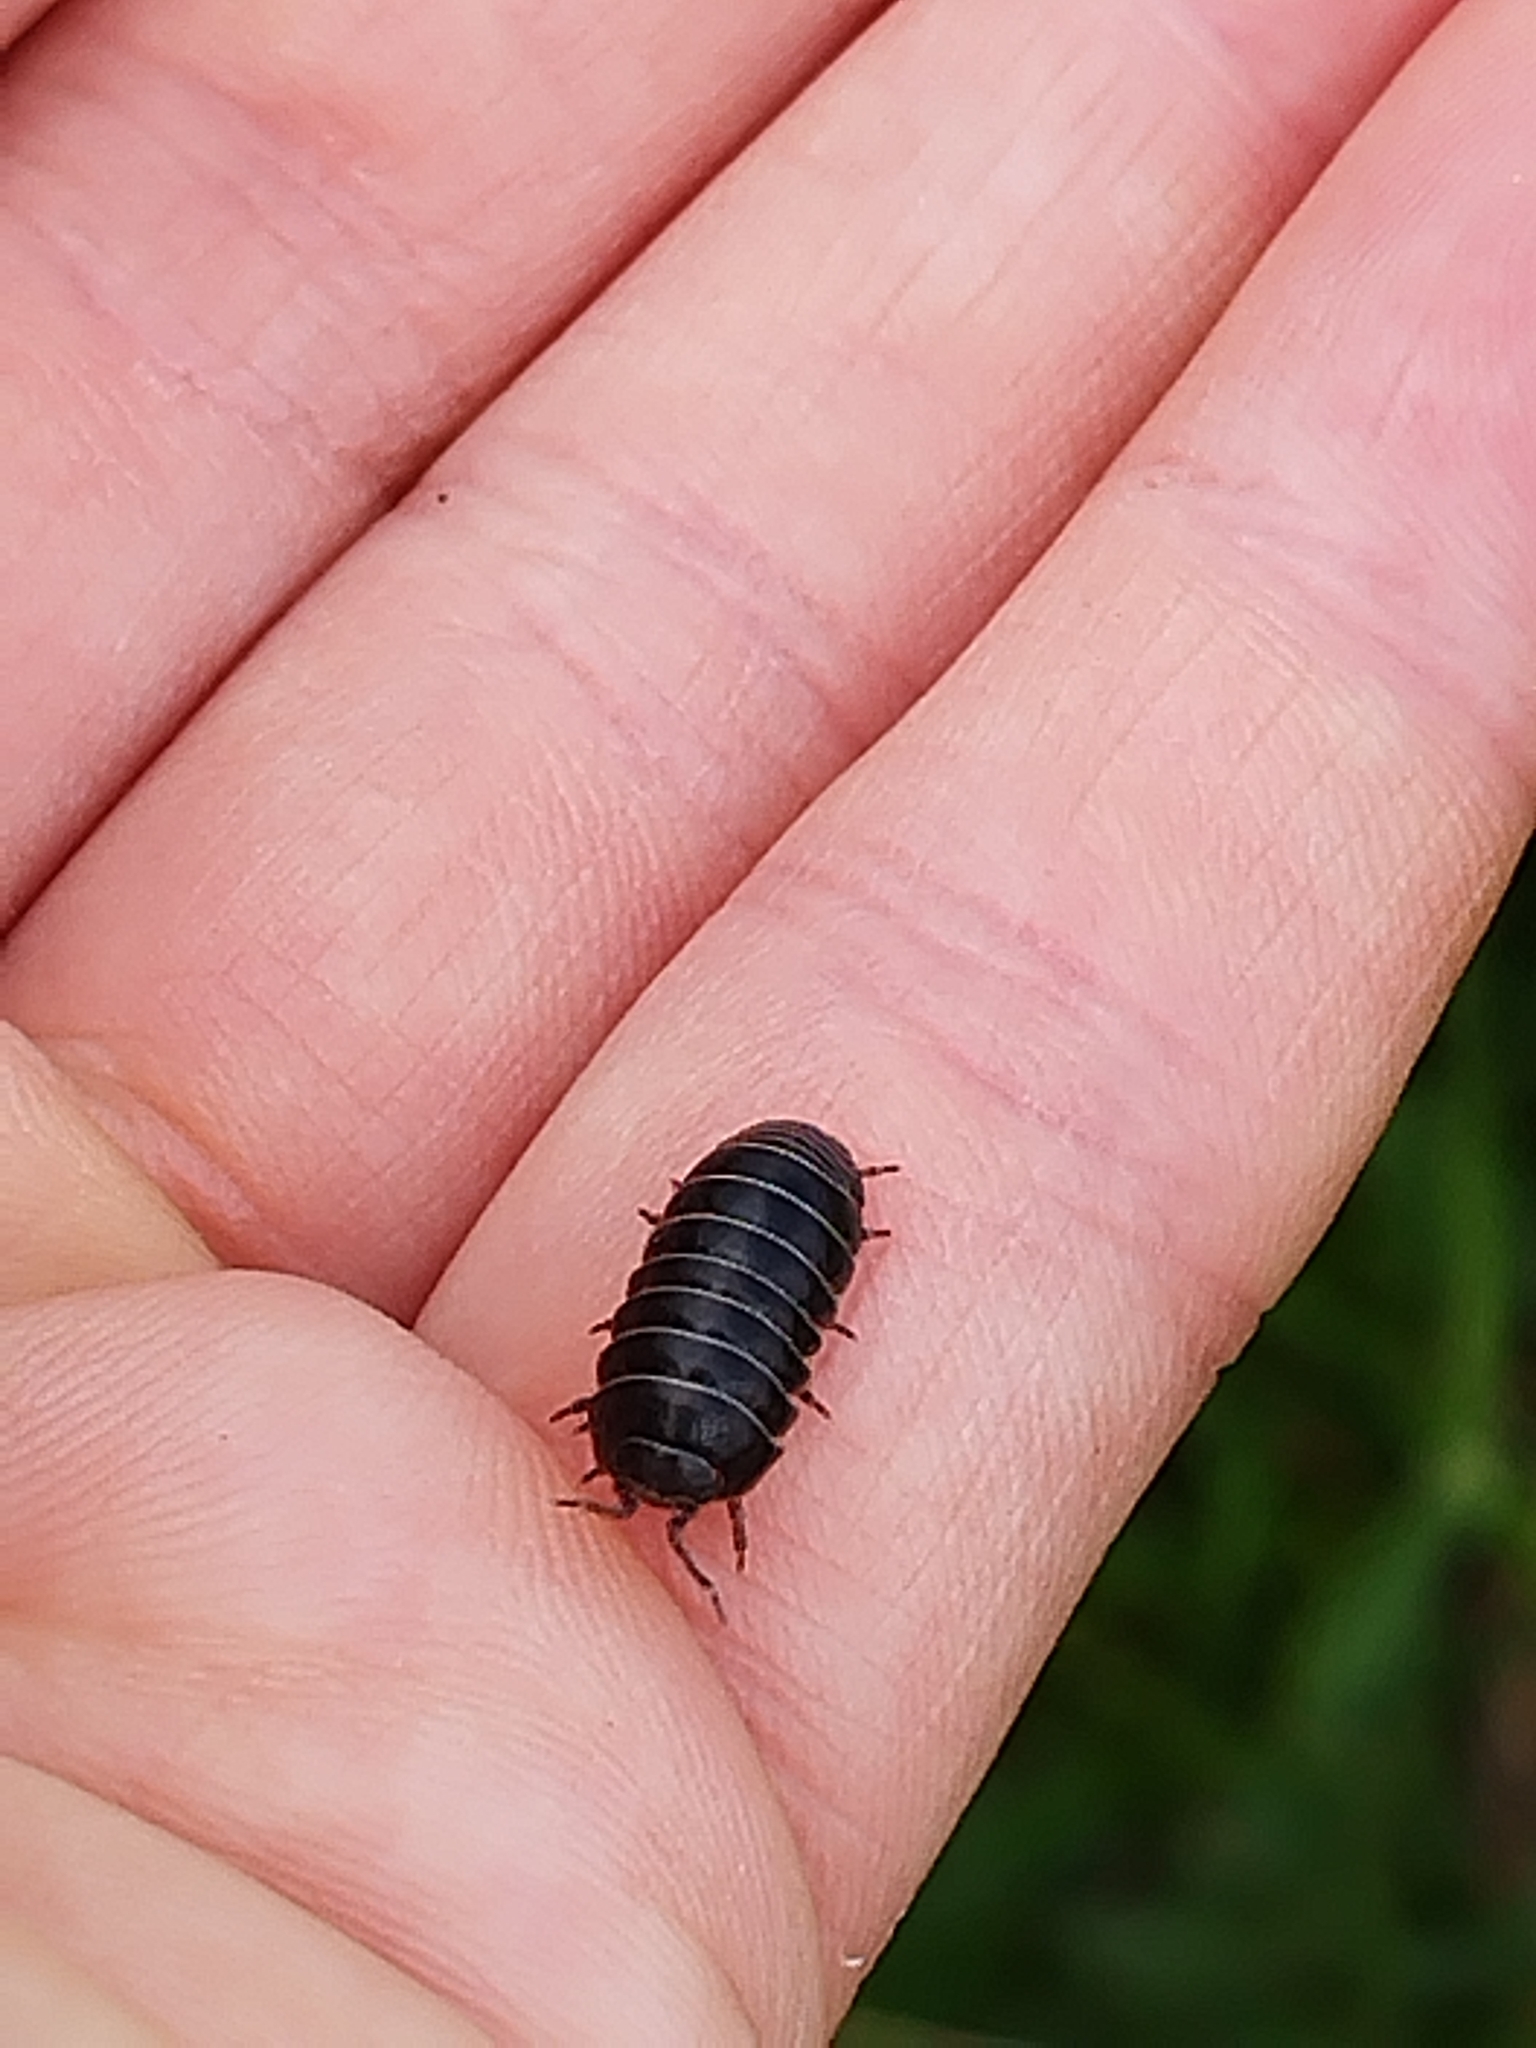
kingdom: Animalia
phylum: Arthropoda
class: Malacostraca
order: Isopoda
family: Armadillidiidae
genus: Armadillidium
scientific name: Armadillidium vulgare
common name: Common pill woodlouse
